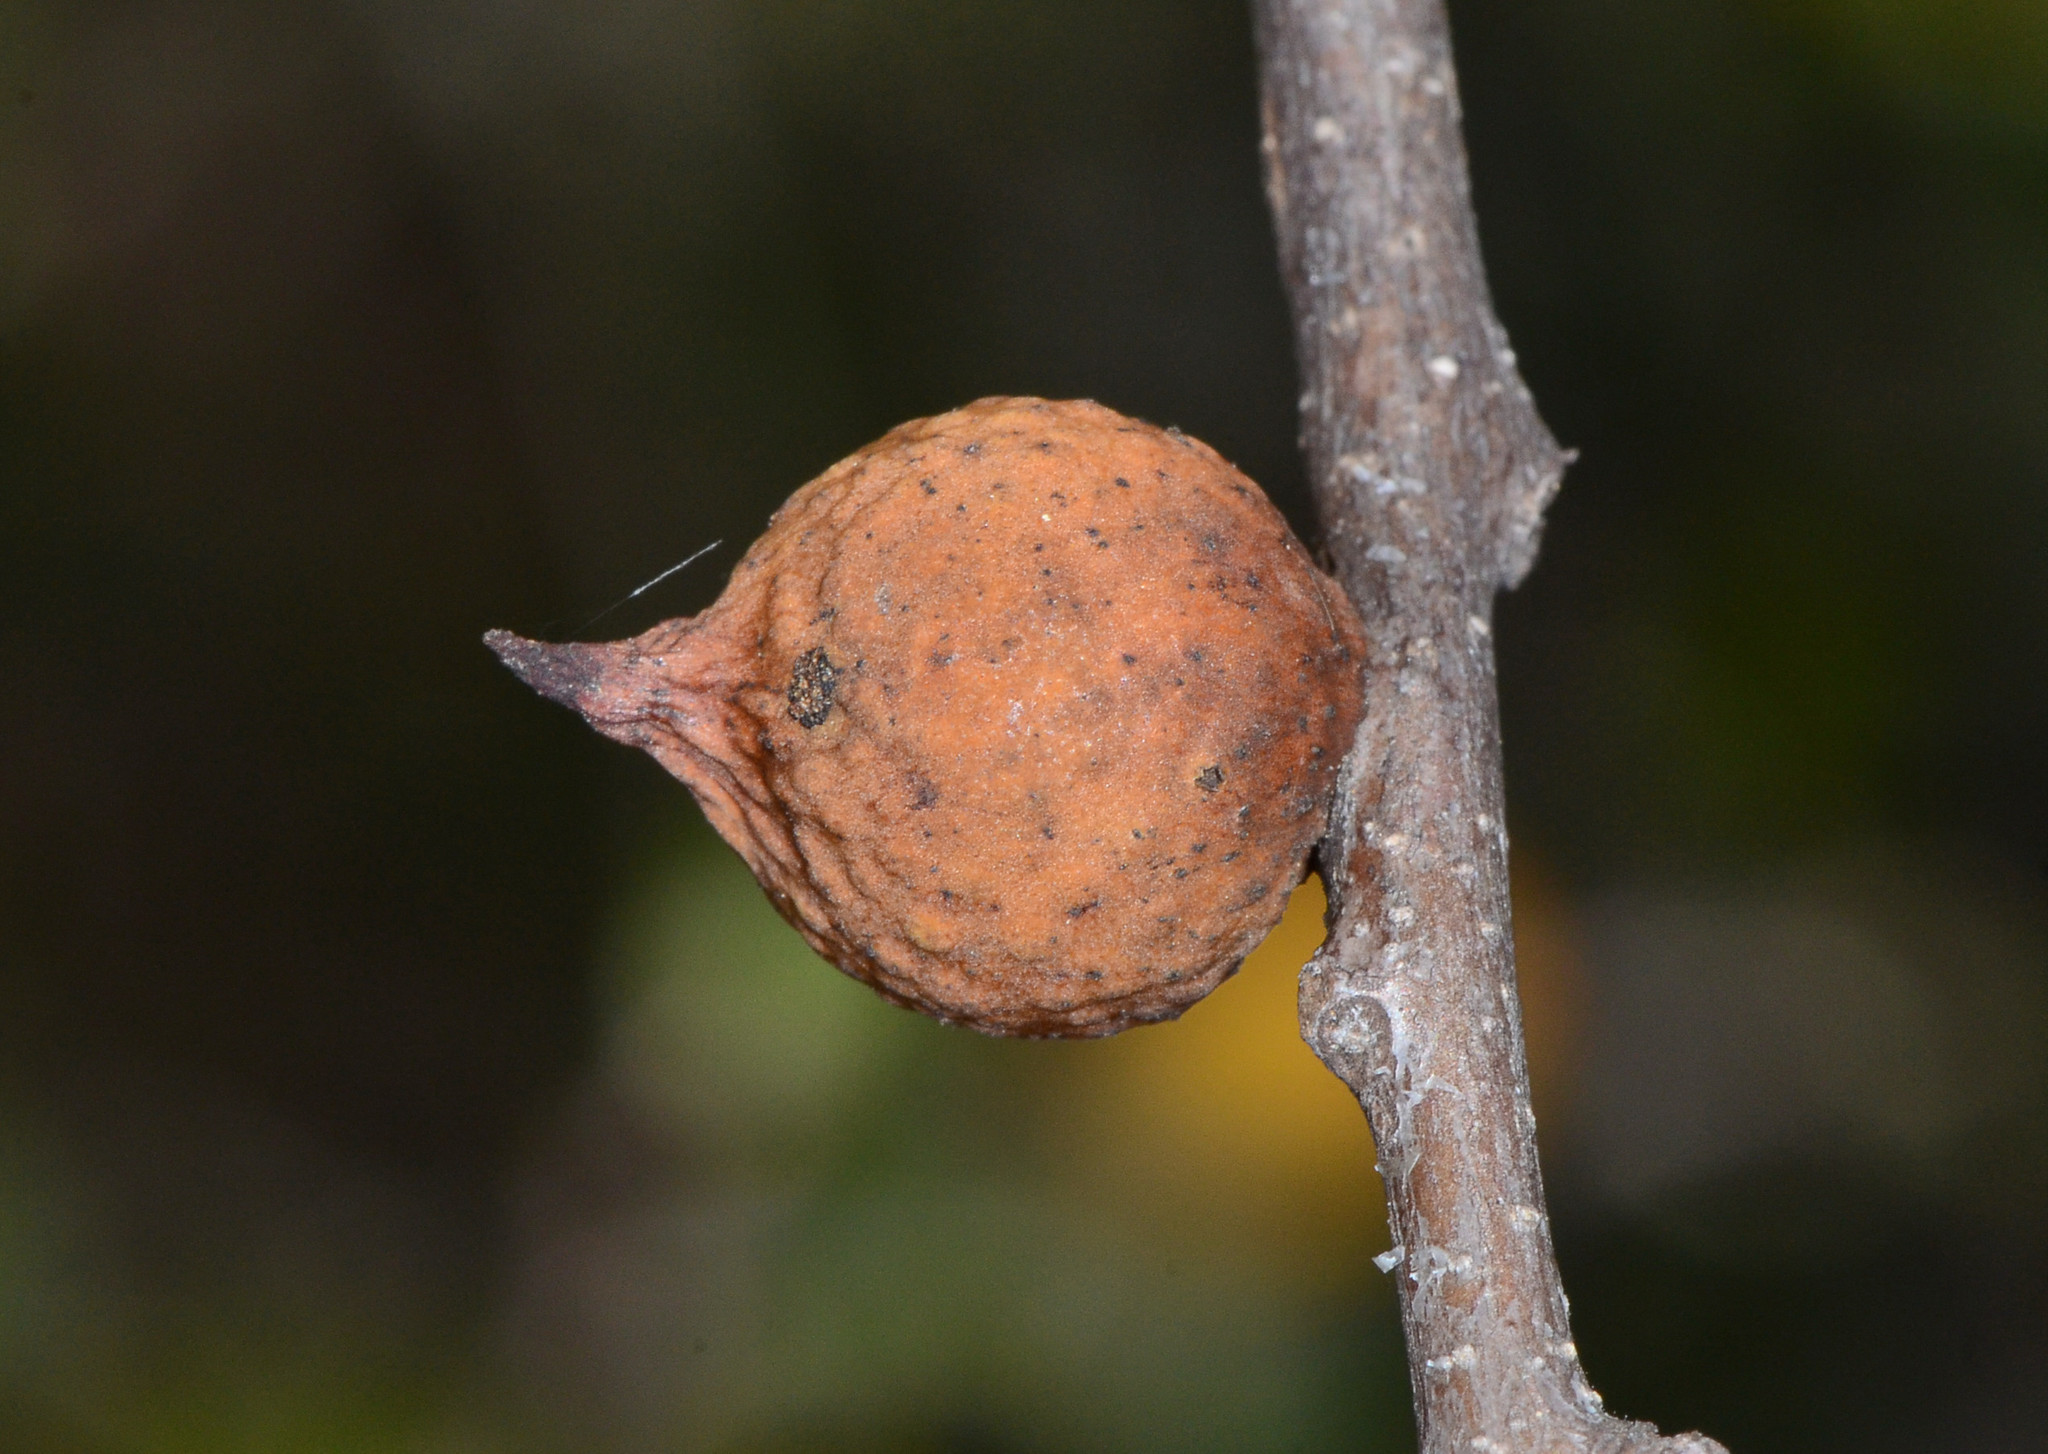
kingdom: Animalia
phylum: Arthropoda
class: Insecta
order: Hymenoptera
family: Cynipidae
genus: Burnettweldia
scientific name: Burnettweldia
